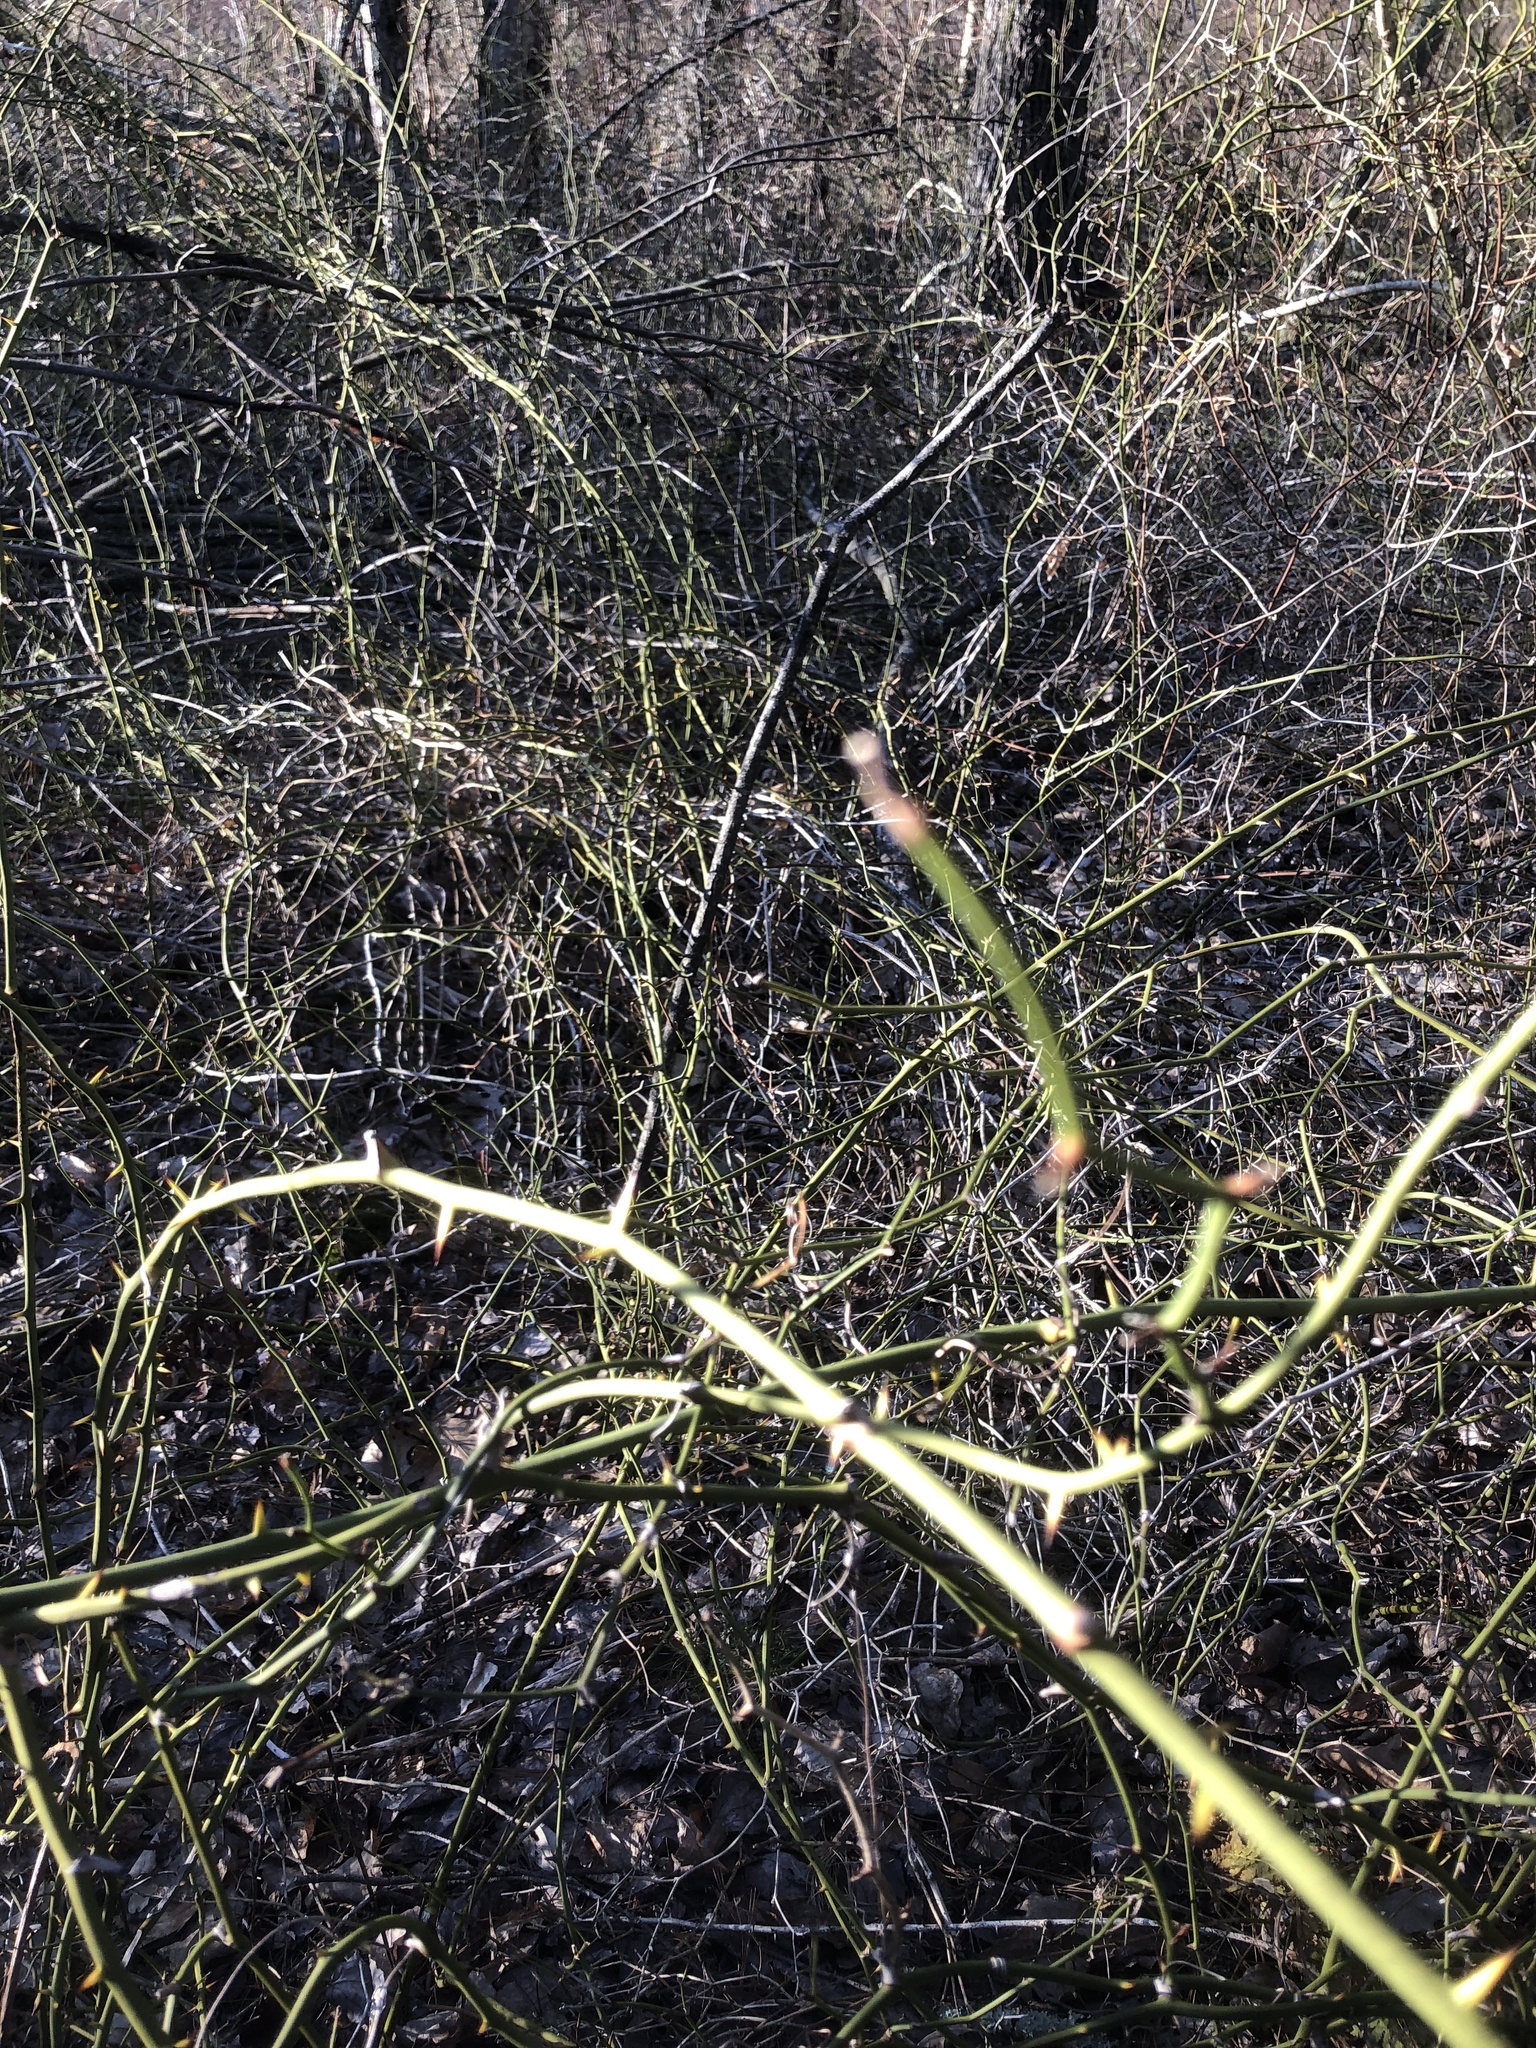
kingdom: Plantae
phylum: Tracheophyta
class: Liliopsida
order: Liliales
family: Smilacaceae
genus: Smilax
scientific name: Smilax rotundifolia
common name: Bullbriar
